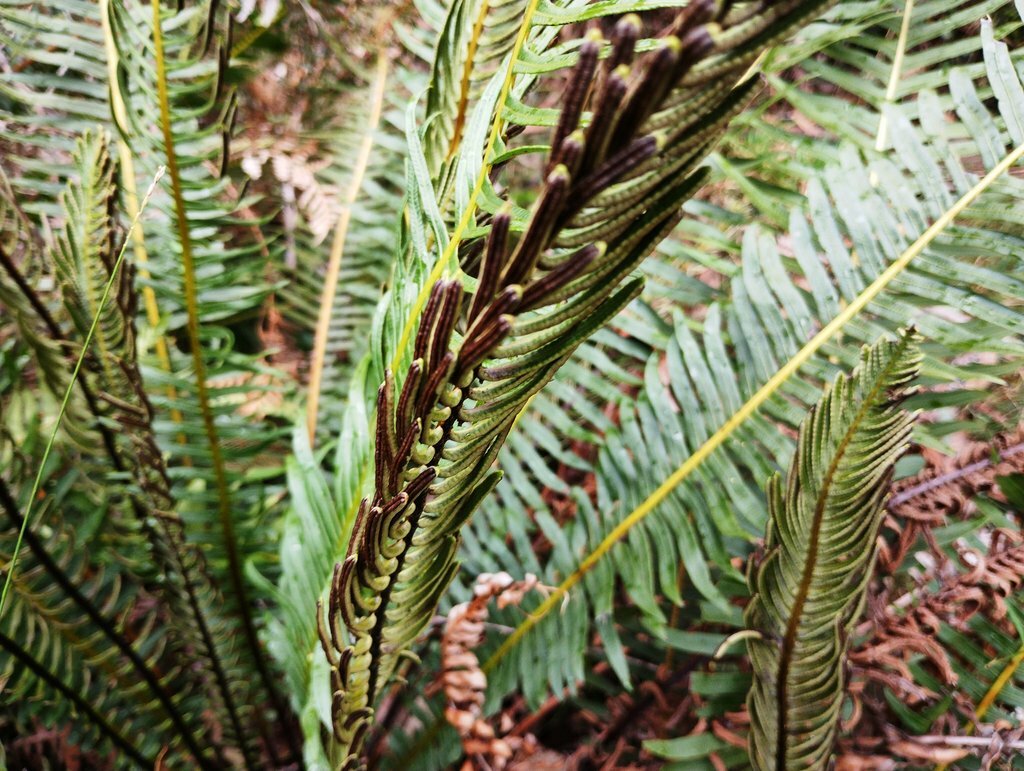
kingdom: Plantae
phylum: Tracheophyta
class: Polypodiopsida
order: Polypodiales
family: Blechnaceae
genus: Lomaria
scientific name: Lomaria nuda
